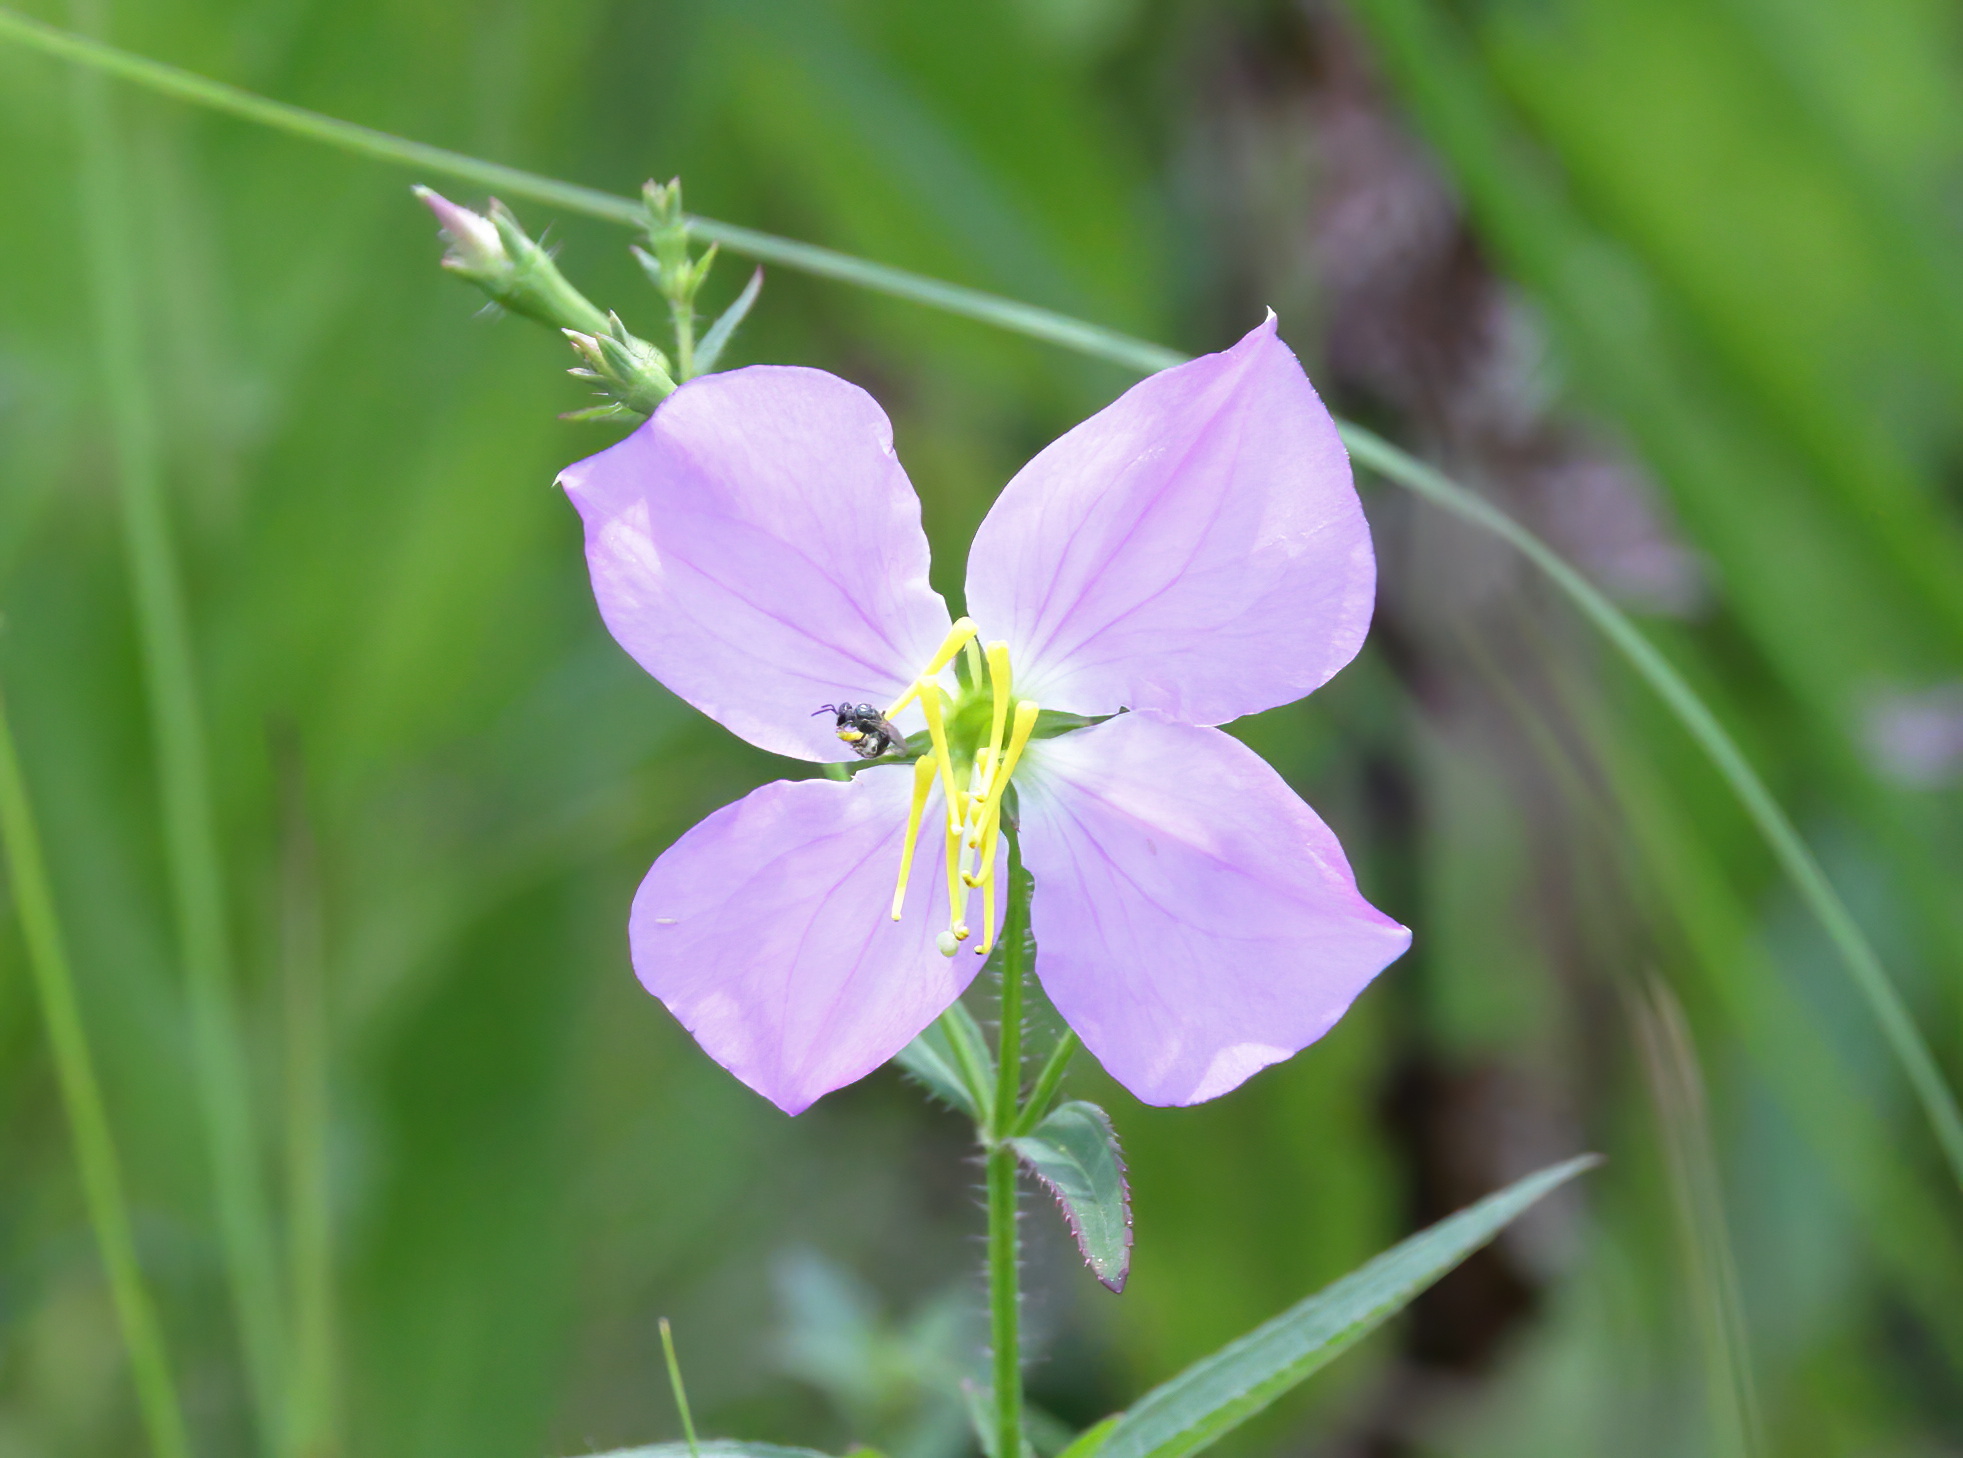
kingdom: Plantae
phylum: Tracheophyta
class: Magnoliopsida
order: Myrtales
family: Melastomataceae
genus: Rhexia
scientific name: Rhexia nashii
